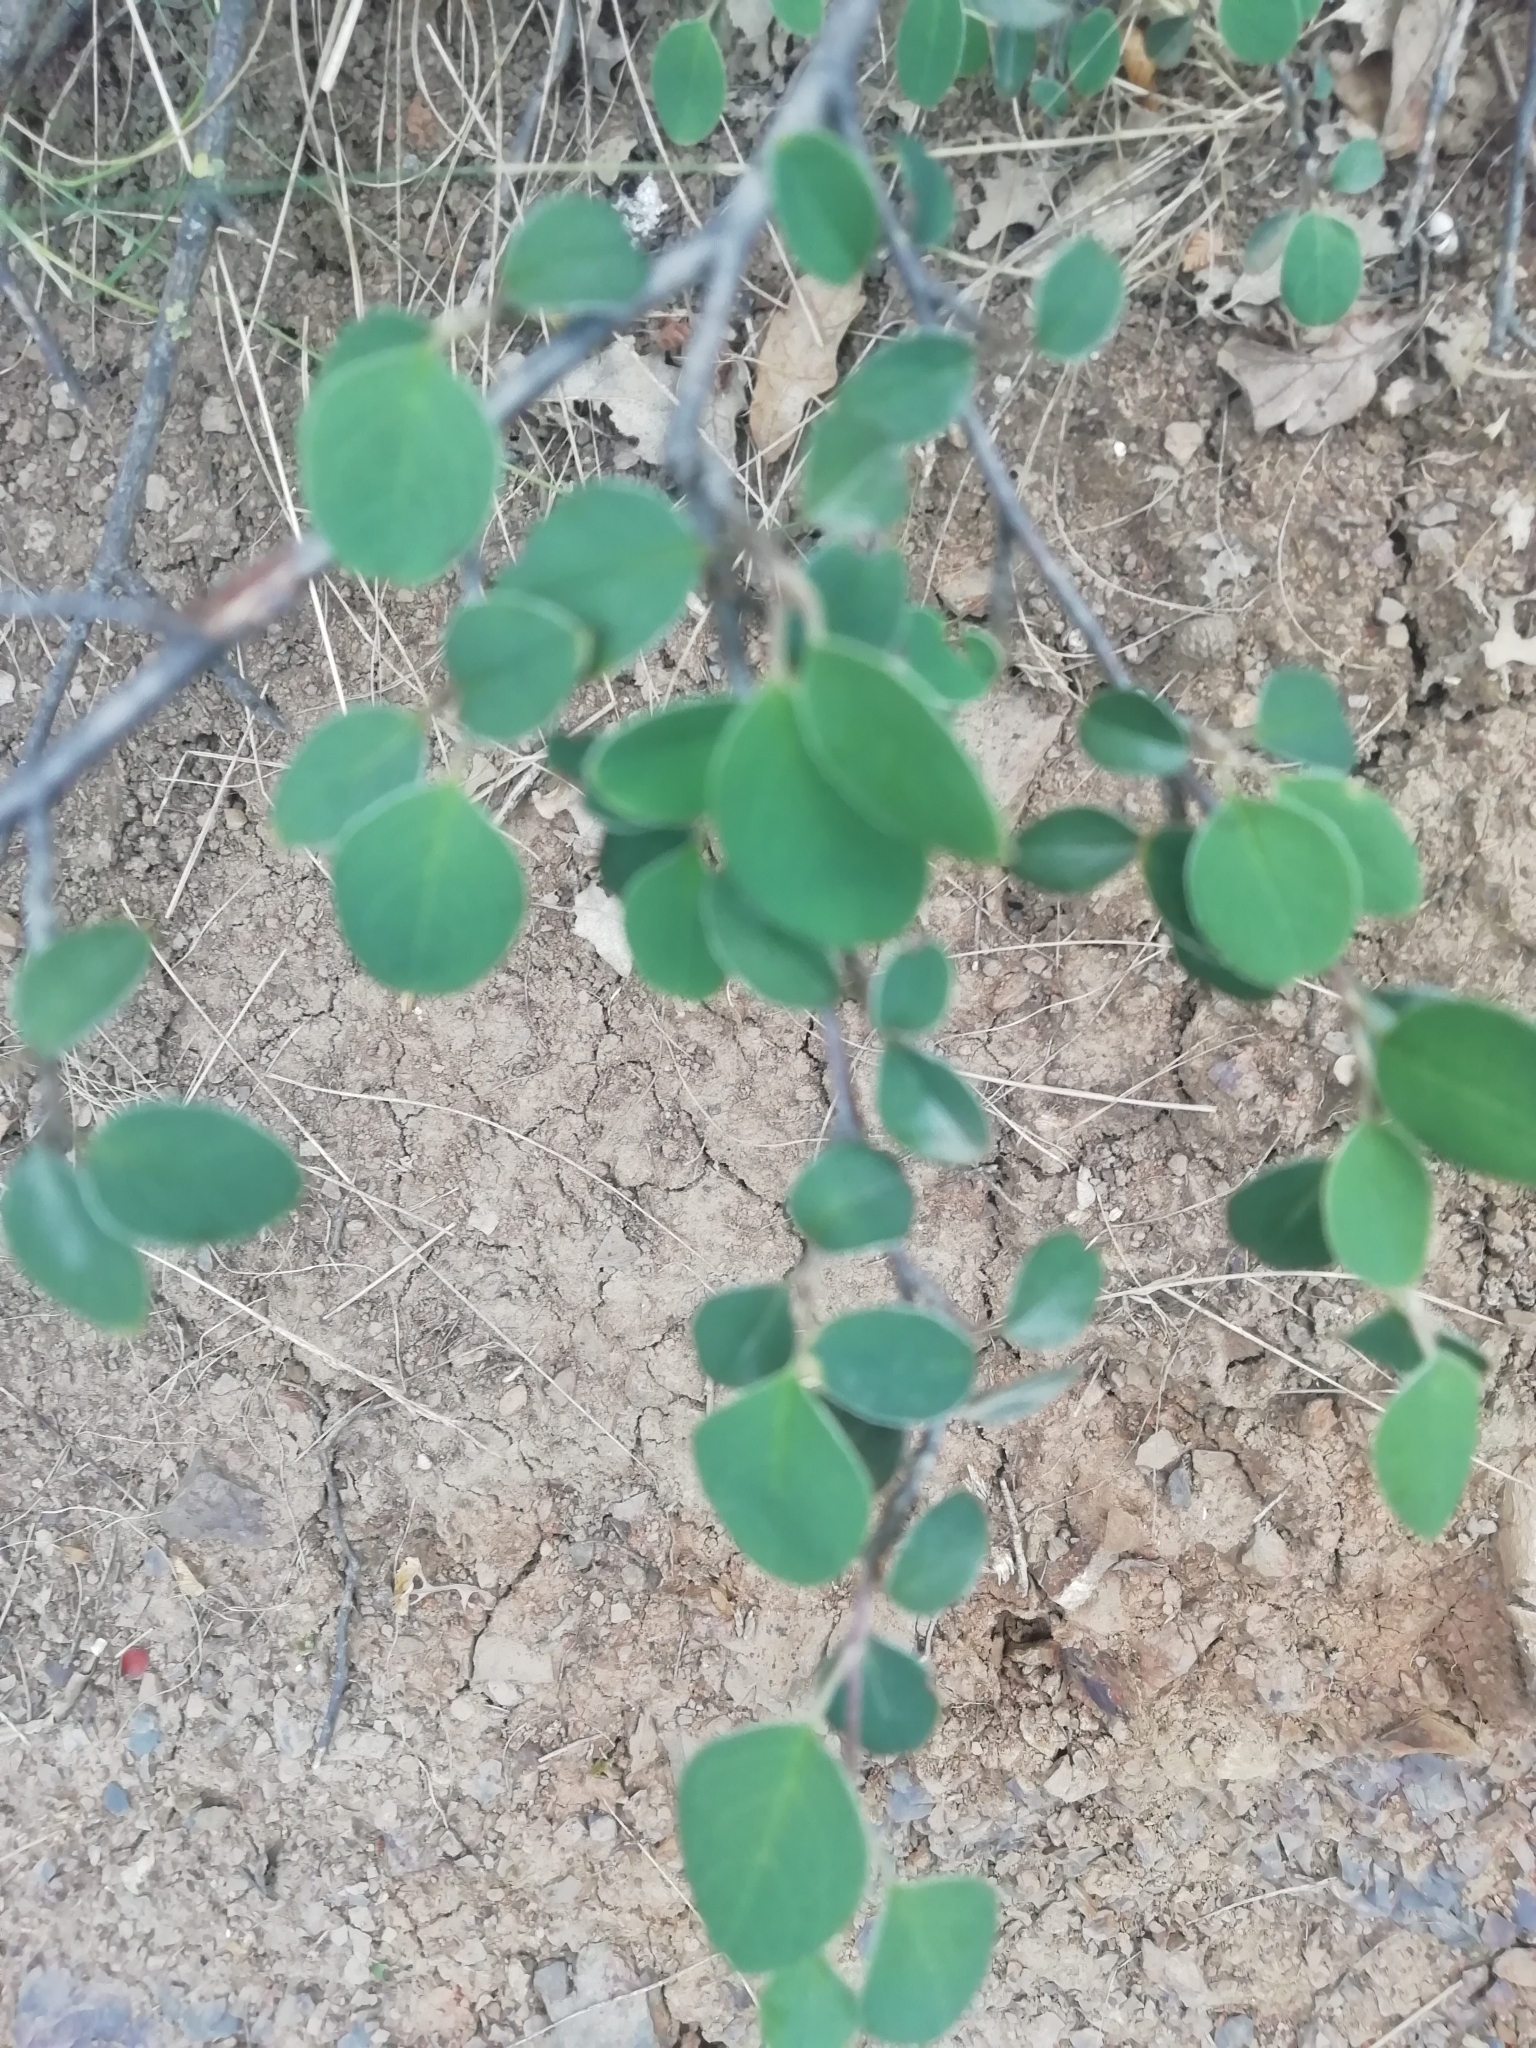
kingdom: Plantae
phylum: Tracheophyta
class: Magnoliopsida
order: Rosales
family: Rosaceae
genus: Cotoneaster
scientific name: Cotoneaster integerrimus
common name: Wild cotoneaster
